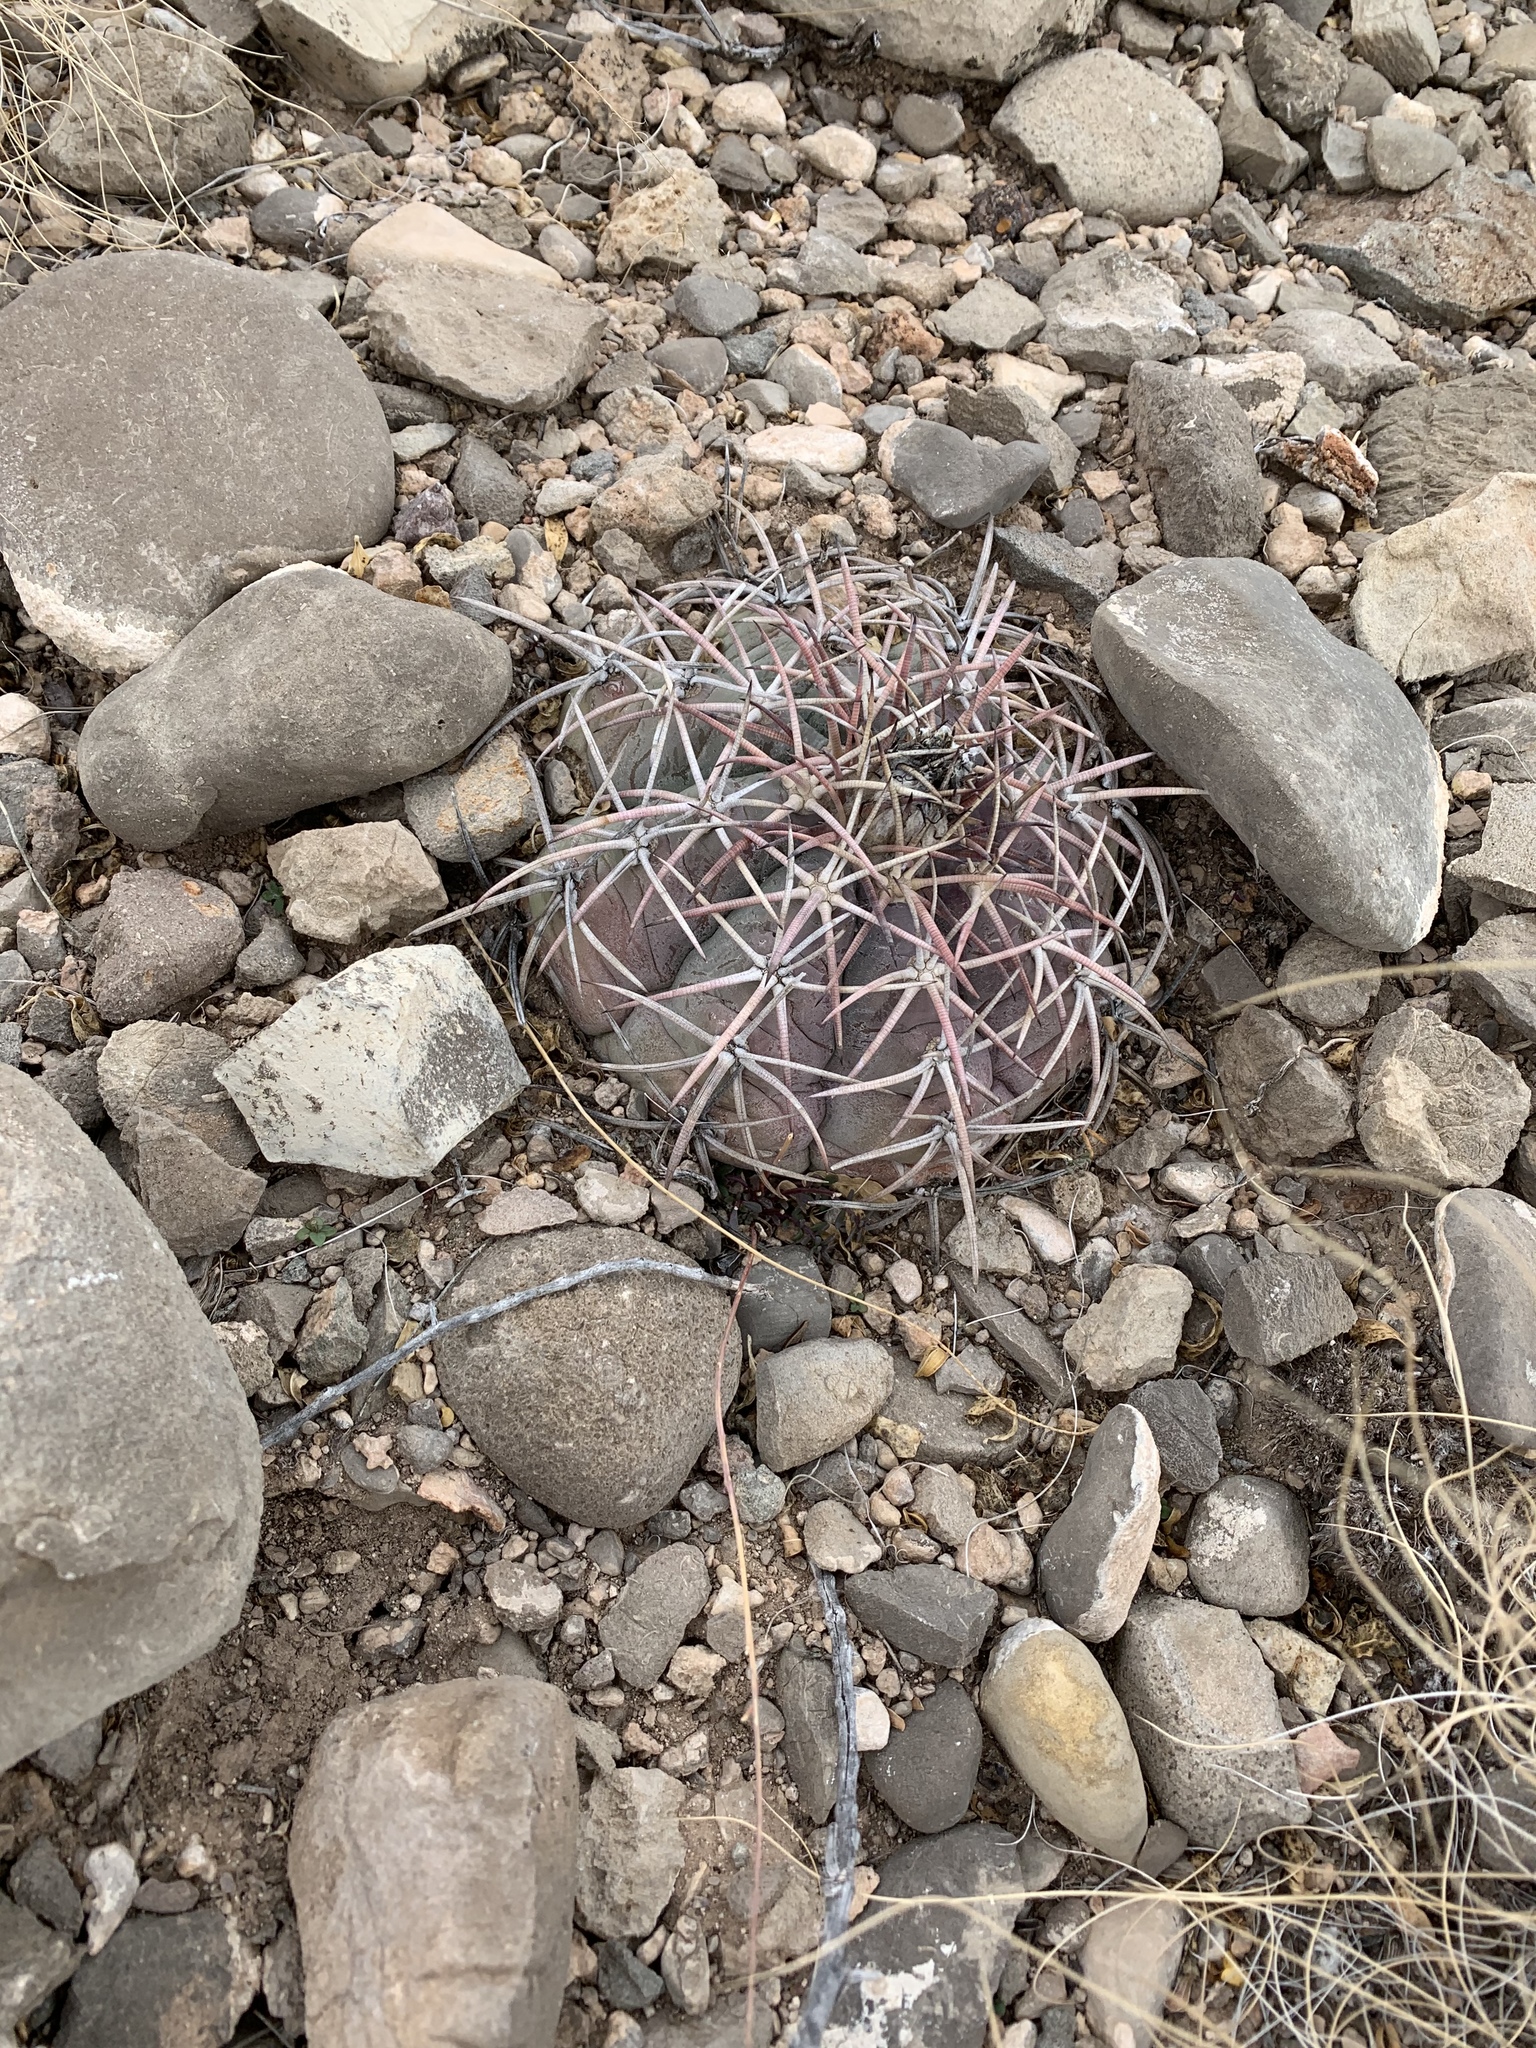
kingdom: Plantae
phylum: Tracheophyta
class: Magnoliopsida
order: Caryophyllales
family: Cactaceae
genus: Echinocactus
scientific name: Echinocactus horizonthalonius
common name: Devilshead
